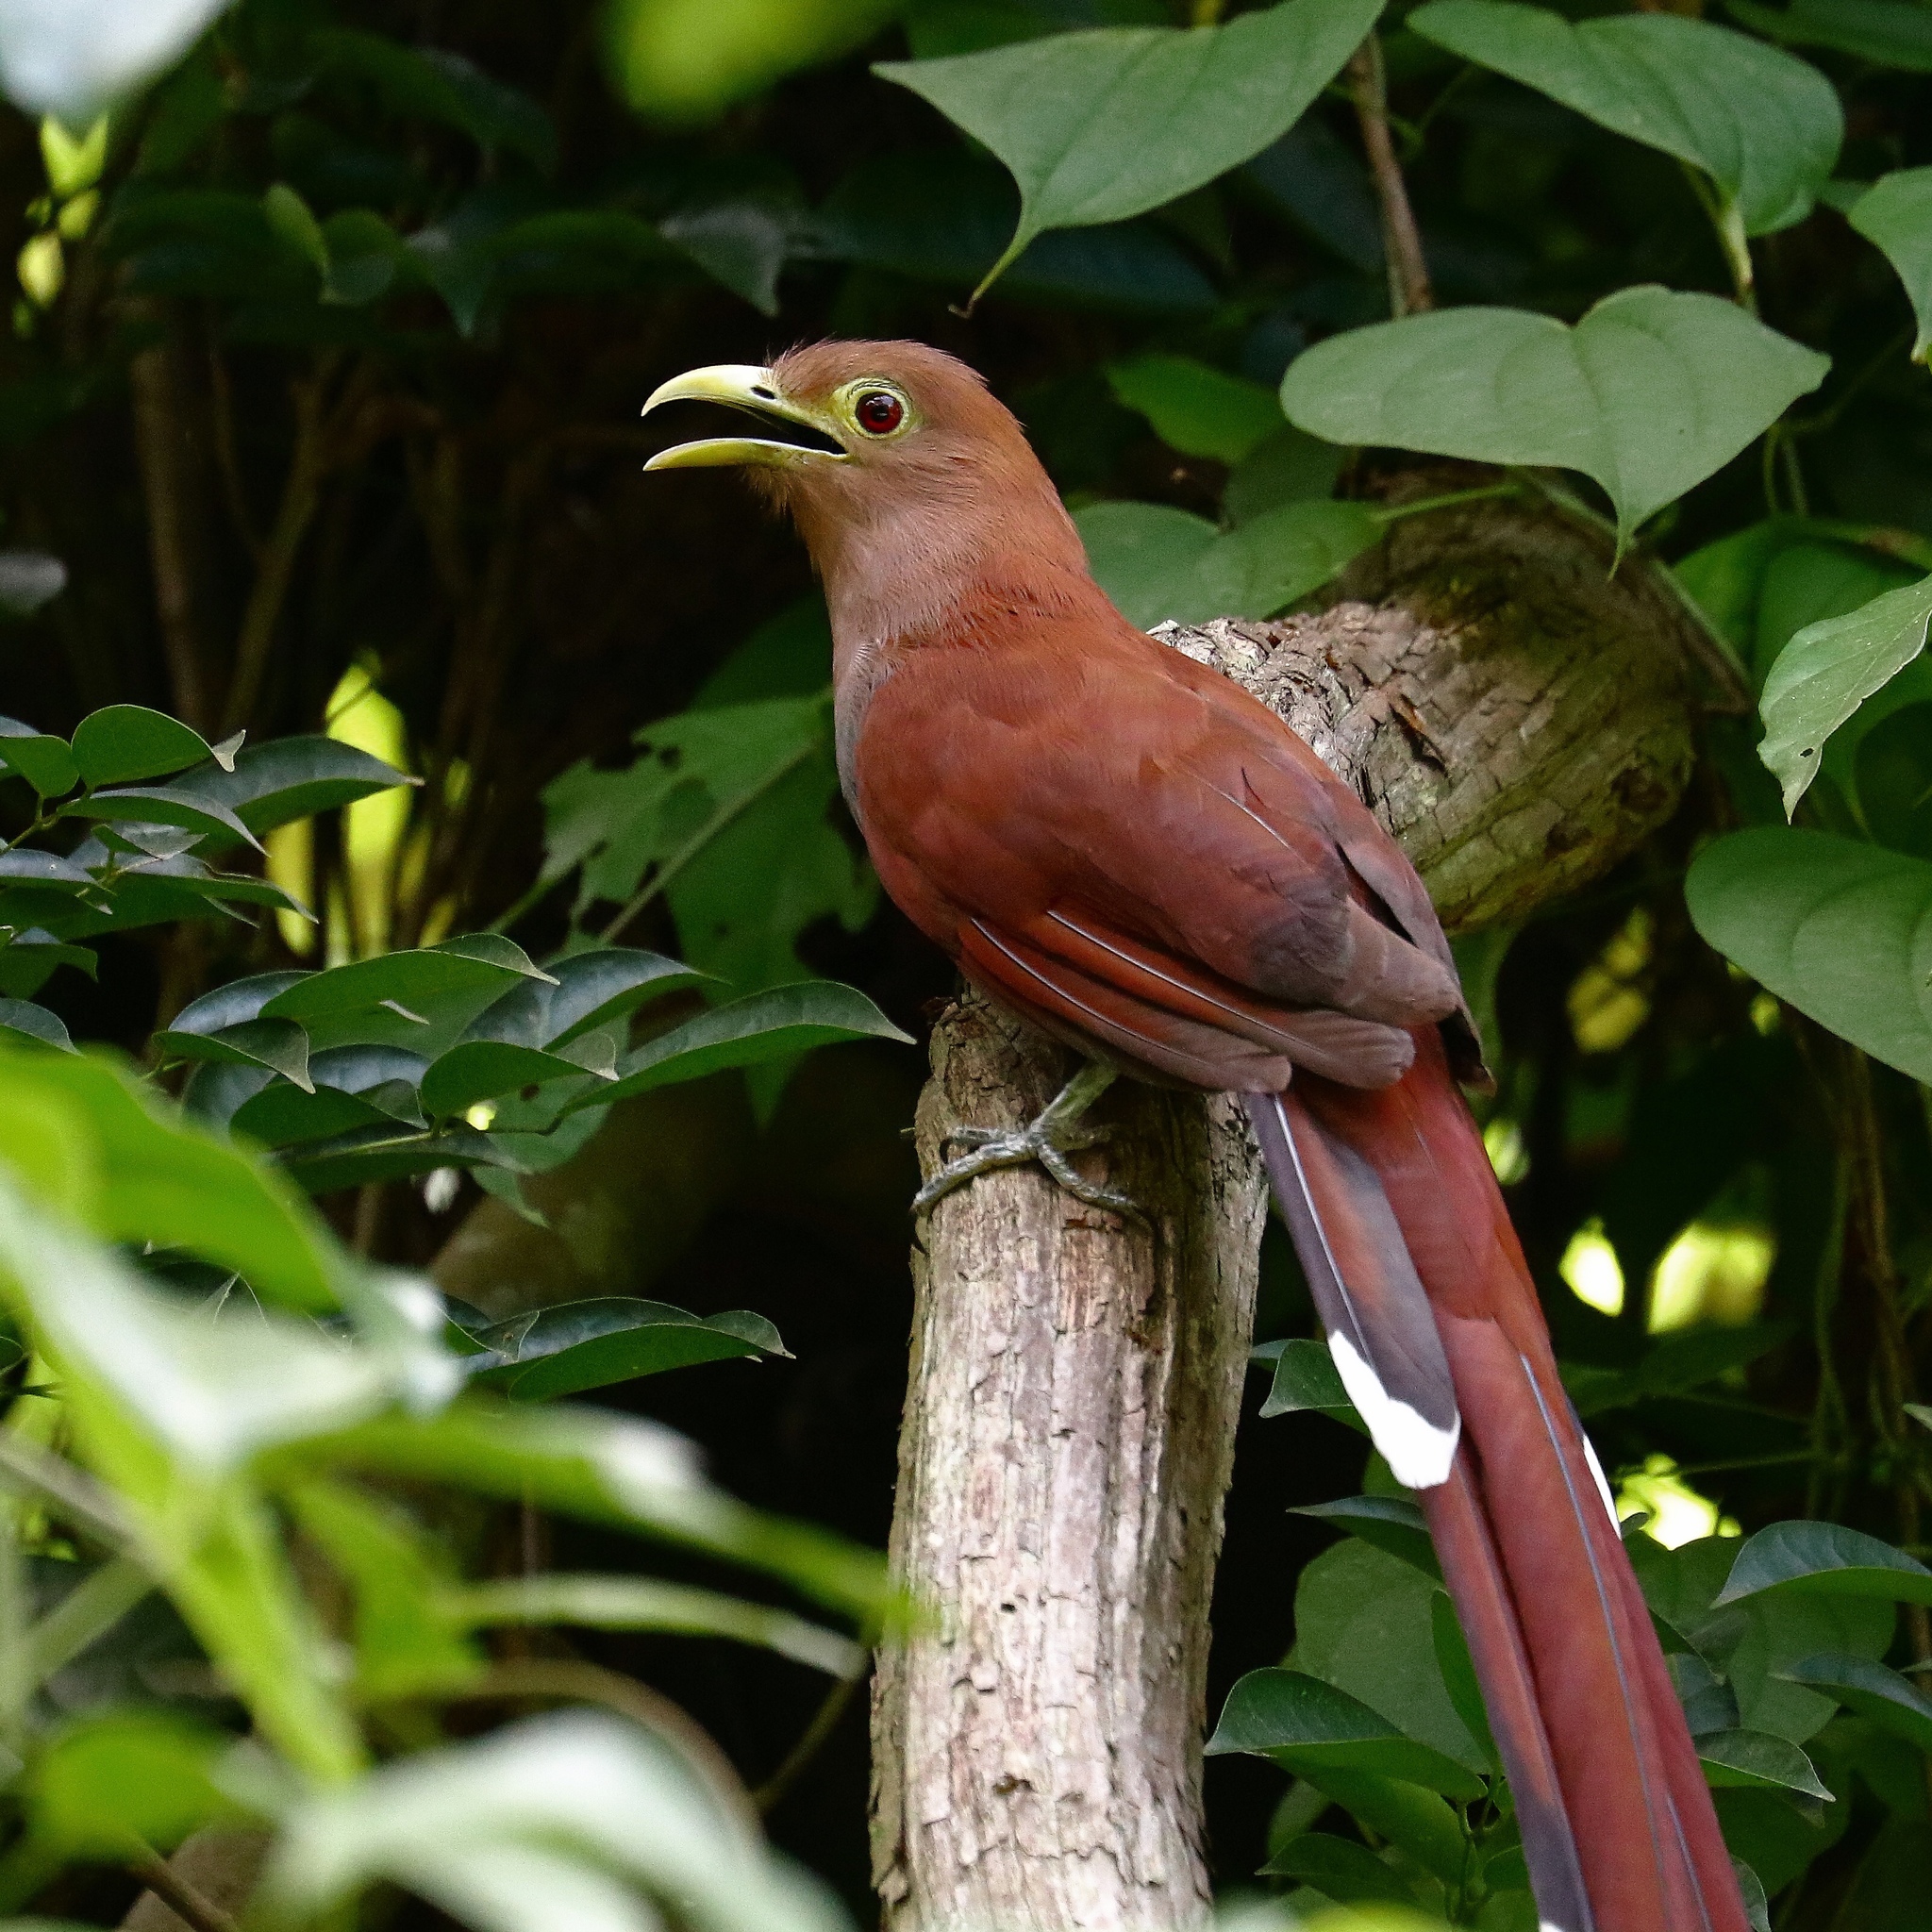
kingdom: Animalia
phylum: Chordata
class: Aves
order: Cuculiformes
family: Cuculidae
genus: Piaya
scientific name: Piaya cayana
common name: Squirrel cuckoo
